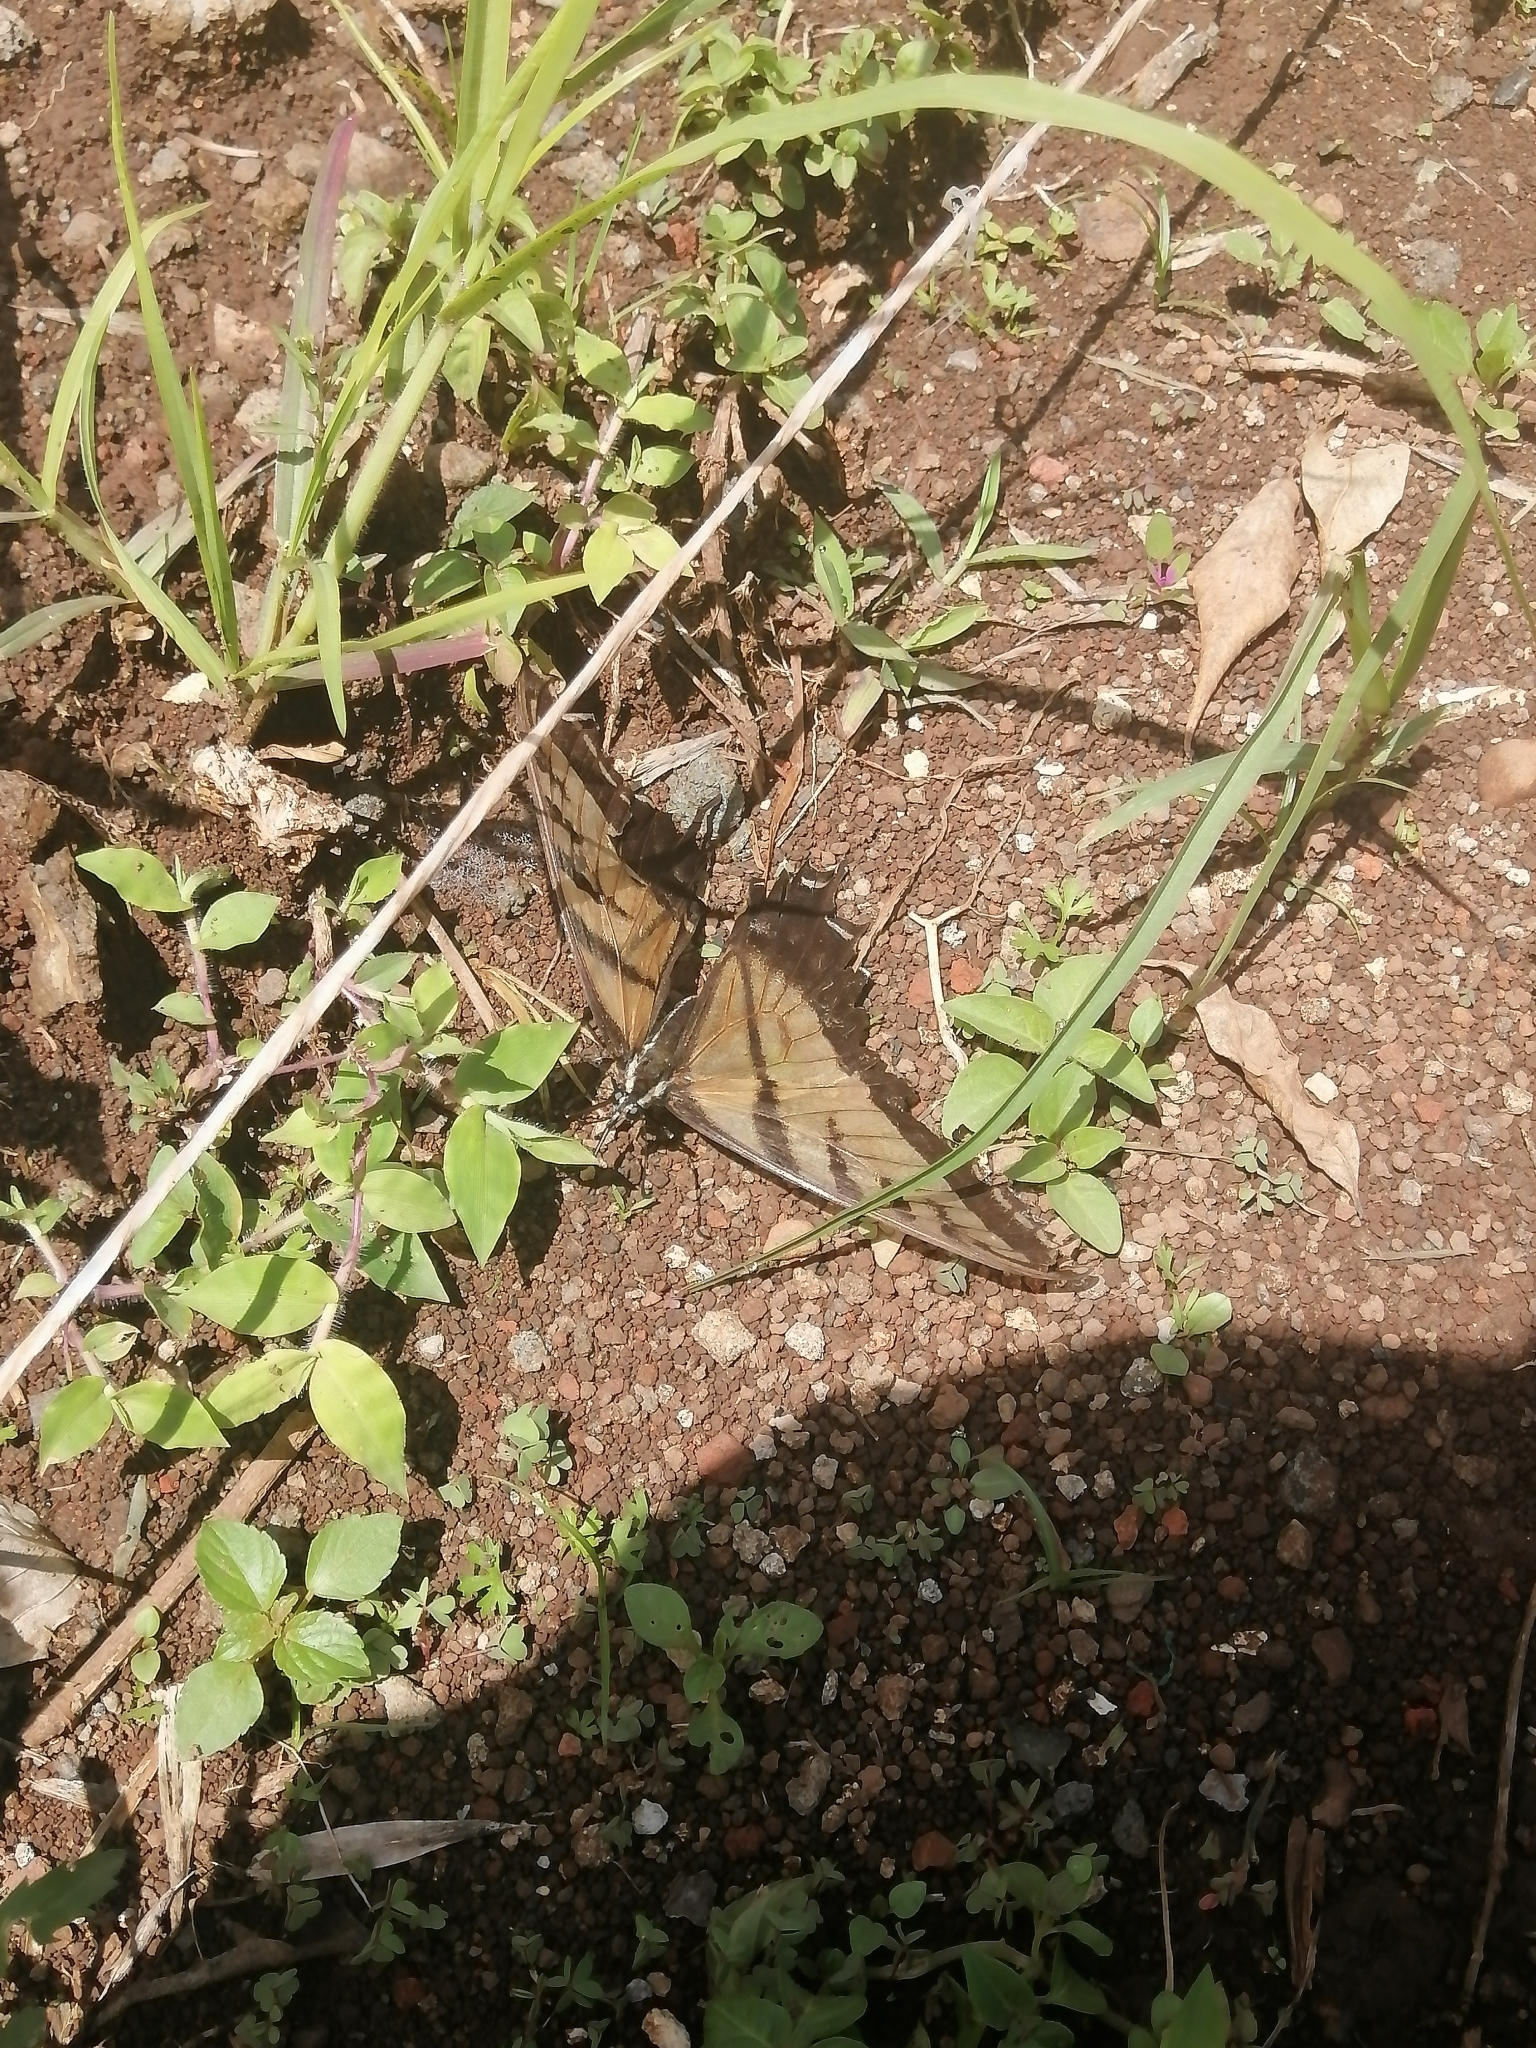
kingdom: Animalia
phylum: Arthropoda
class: Insecta
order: Lepidoptera
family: Papilionidae
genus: Papilio
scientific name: Papilio multicaudata
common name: Two-tailed tiger swallowtail
